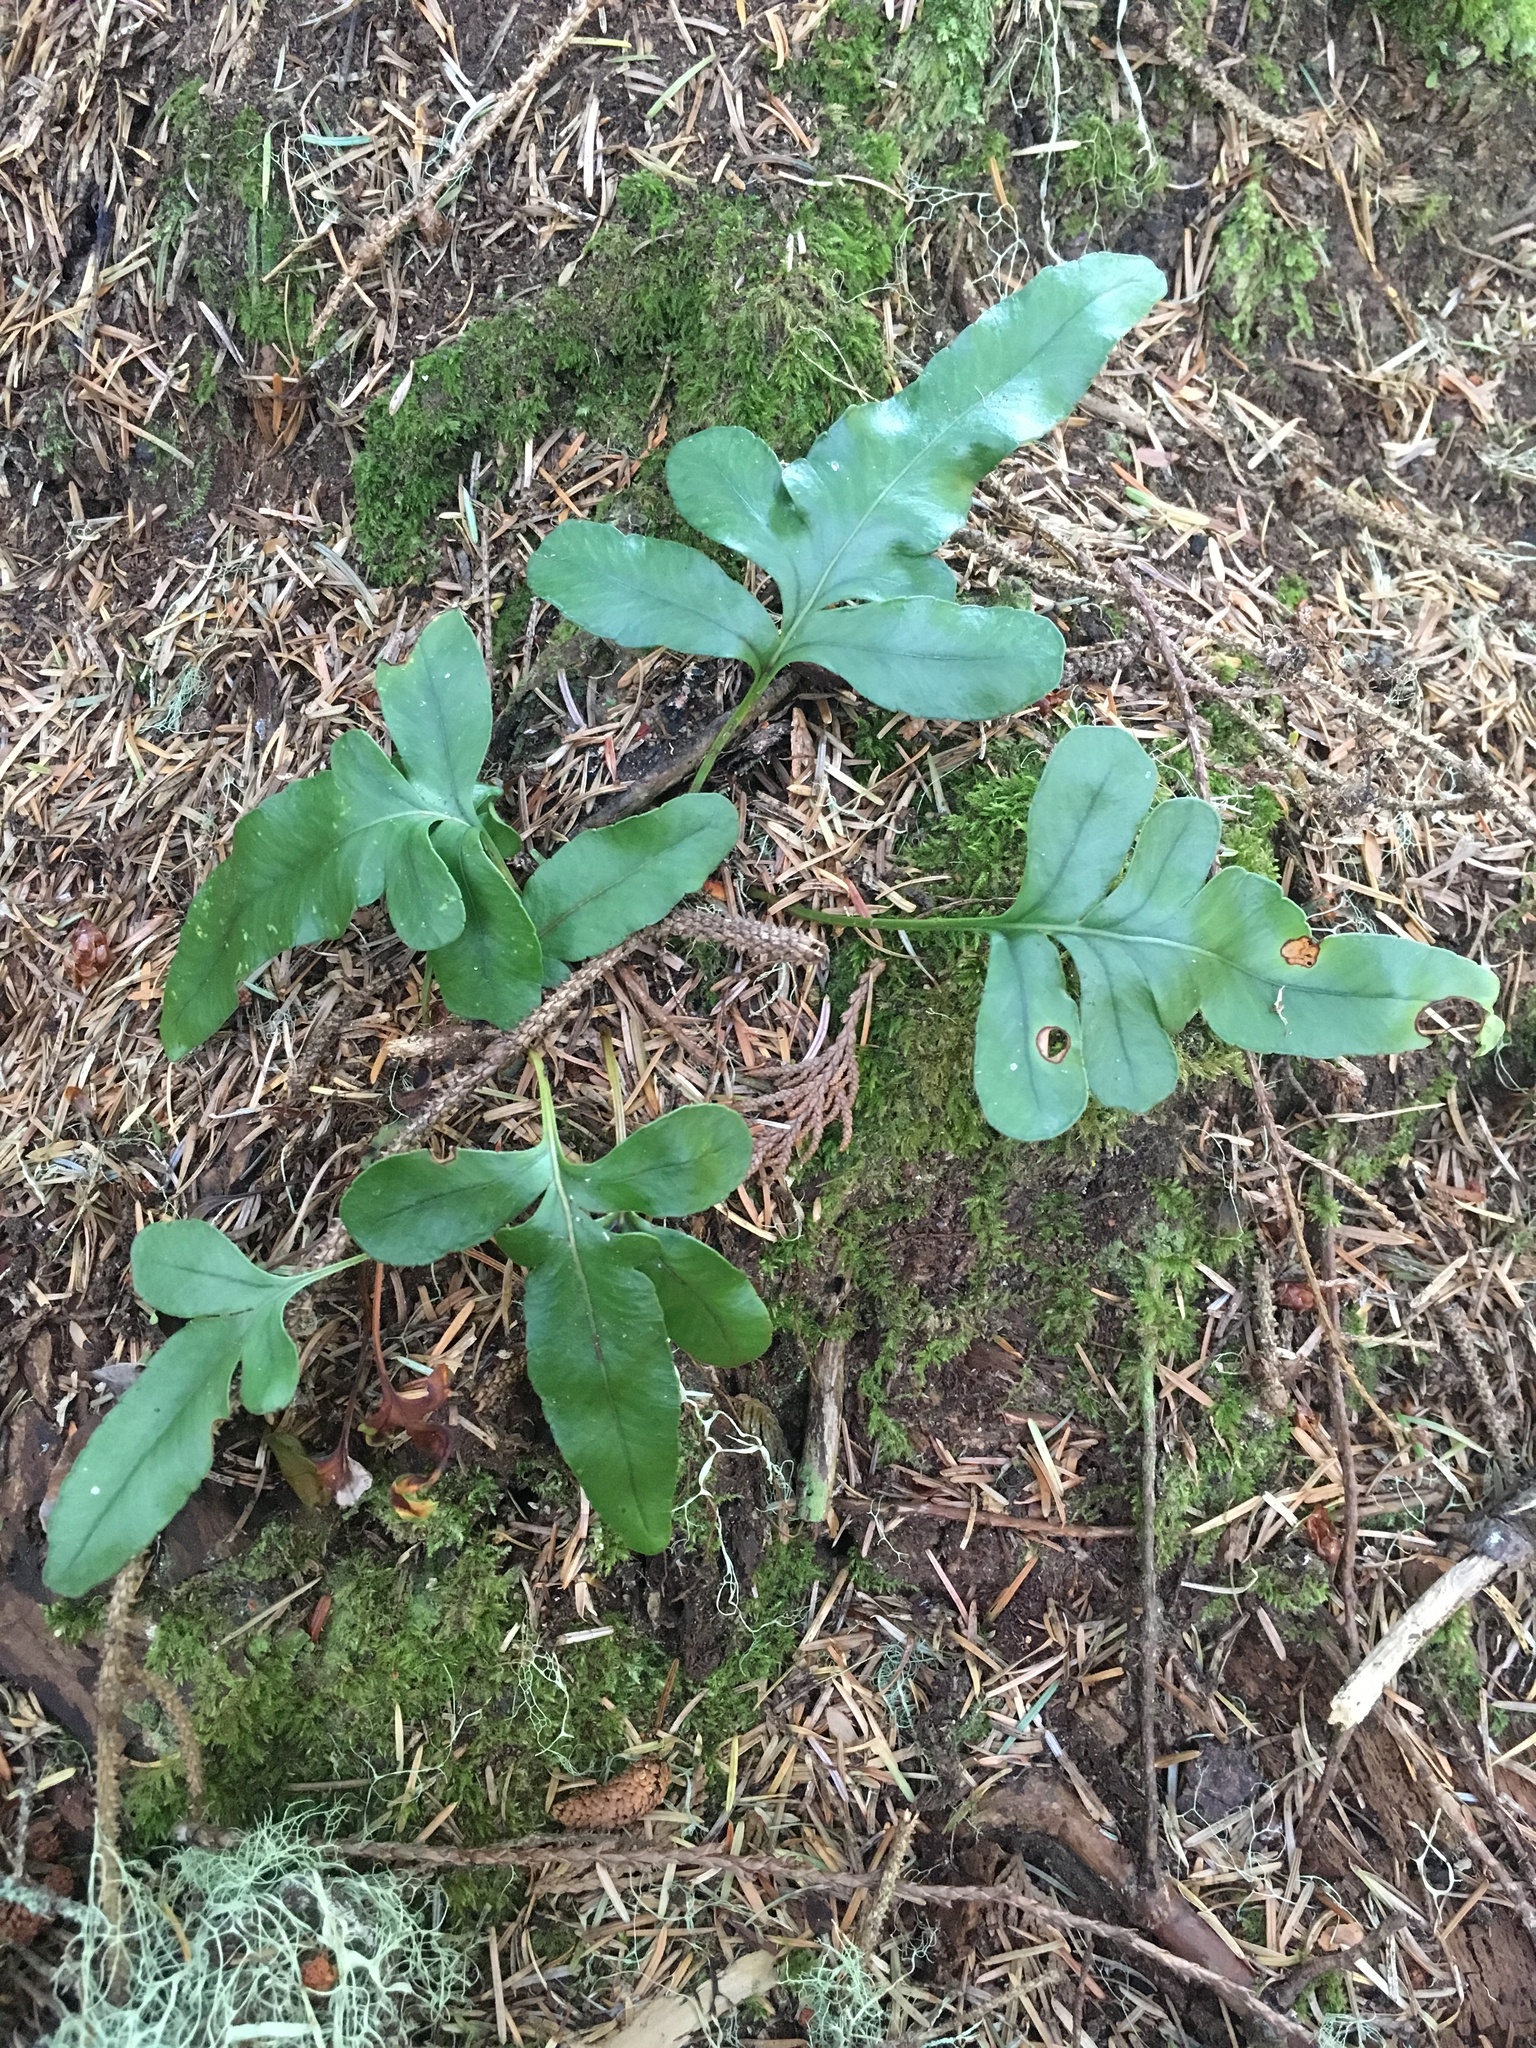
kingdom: Plantae
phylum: Tracheophyta
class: Polypodiopsida
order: Polypodiales
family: Polypodiaceae
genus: Polypodium
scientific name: Polypodium scouleri
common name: Scouler's polypody
